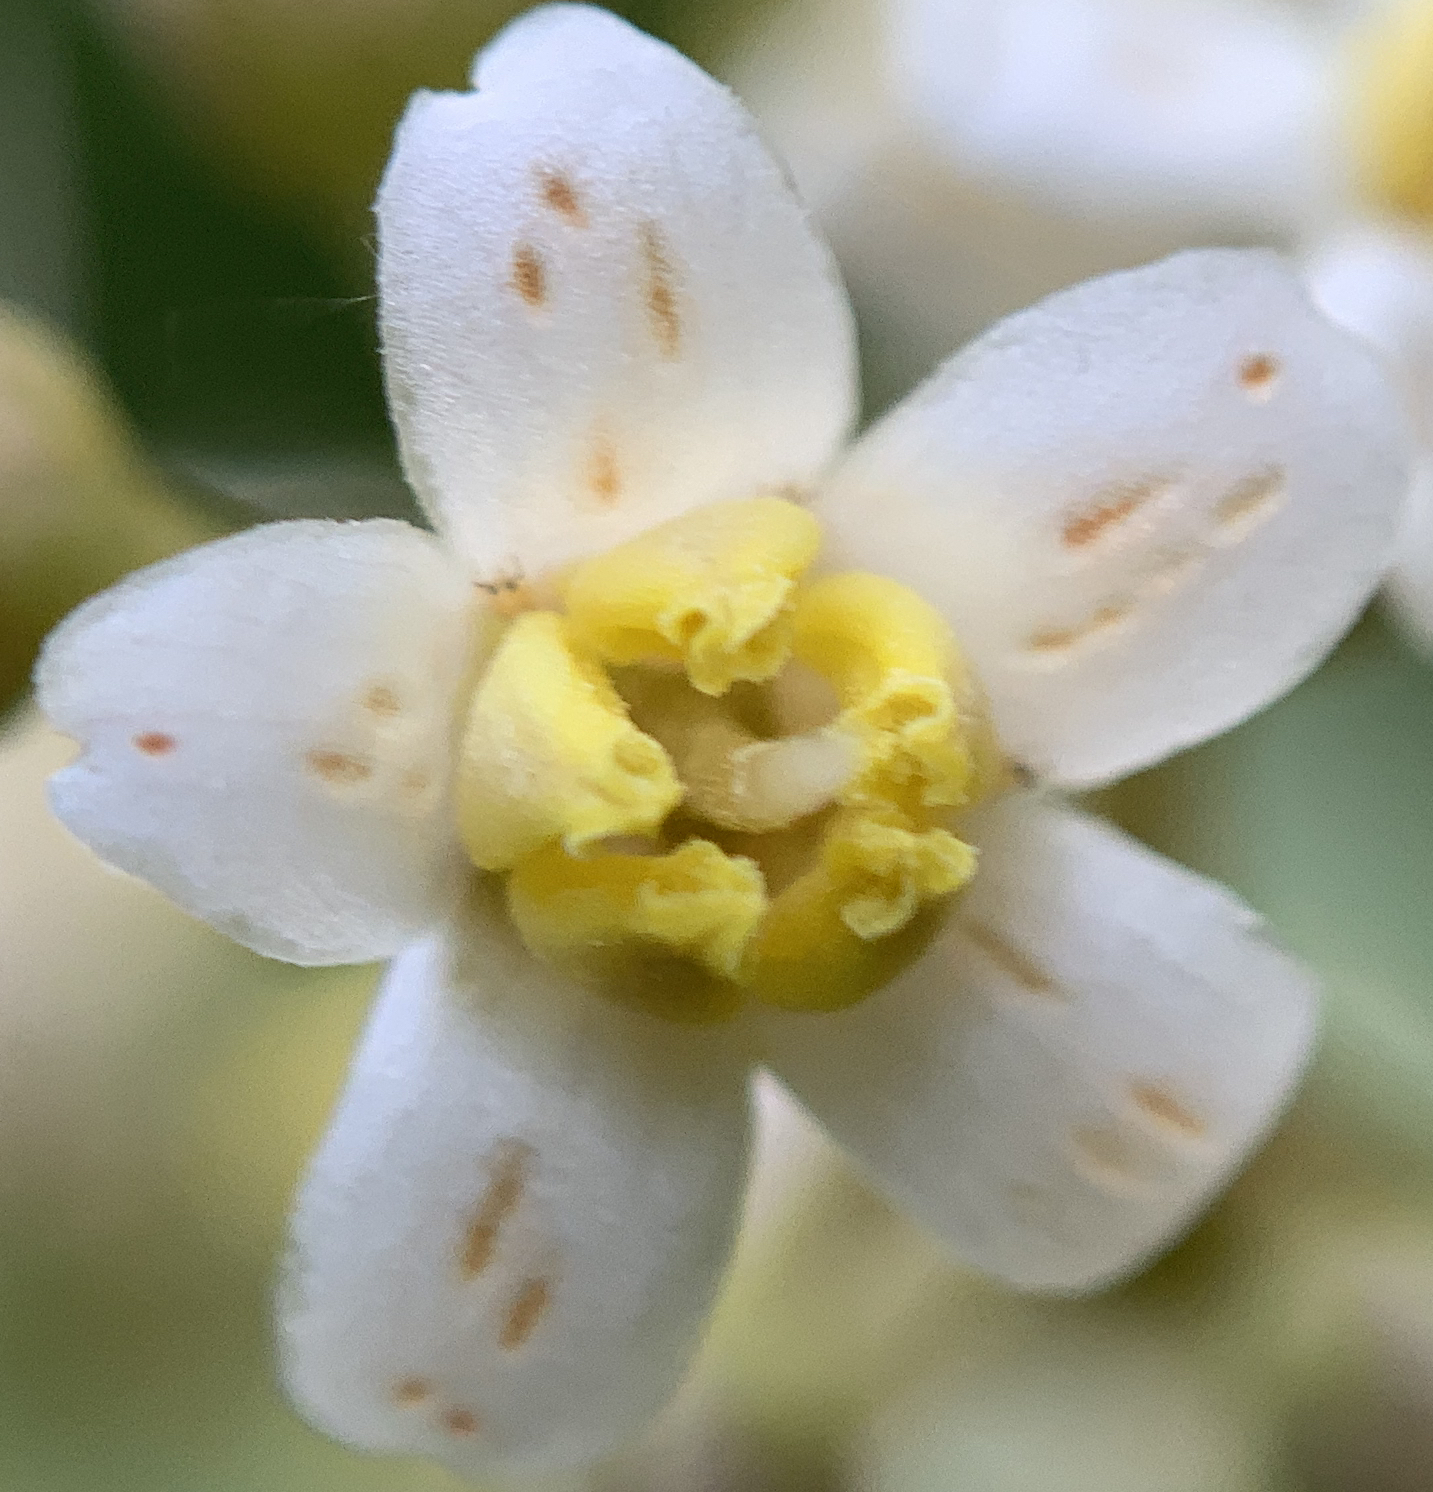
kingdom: Plantae
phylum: Tracheophyta
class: Magnoliopsida
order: Ericales
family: Primulaceae
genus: Ardisia
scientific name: Ardisia escallonioides
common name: Island marlberry
